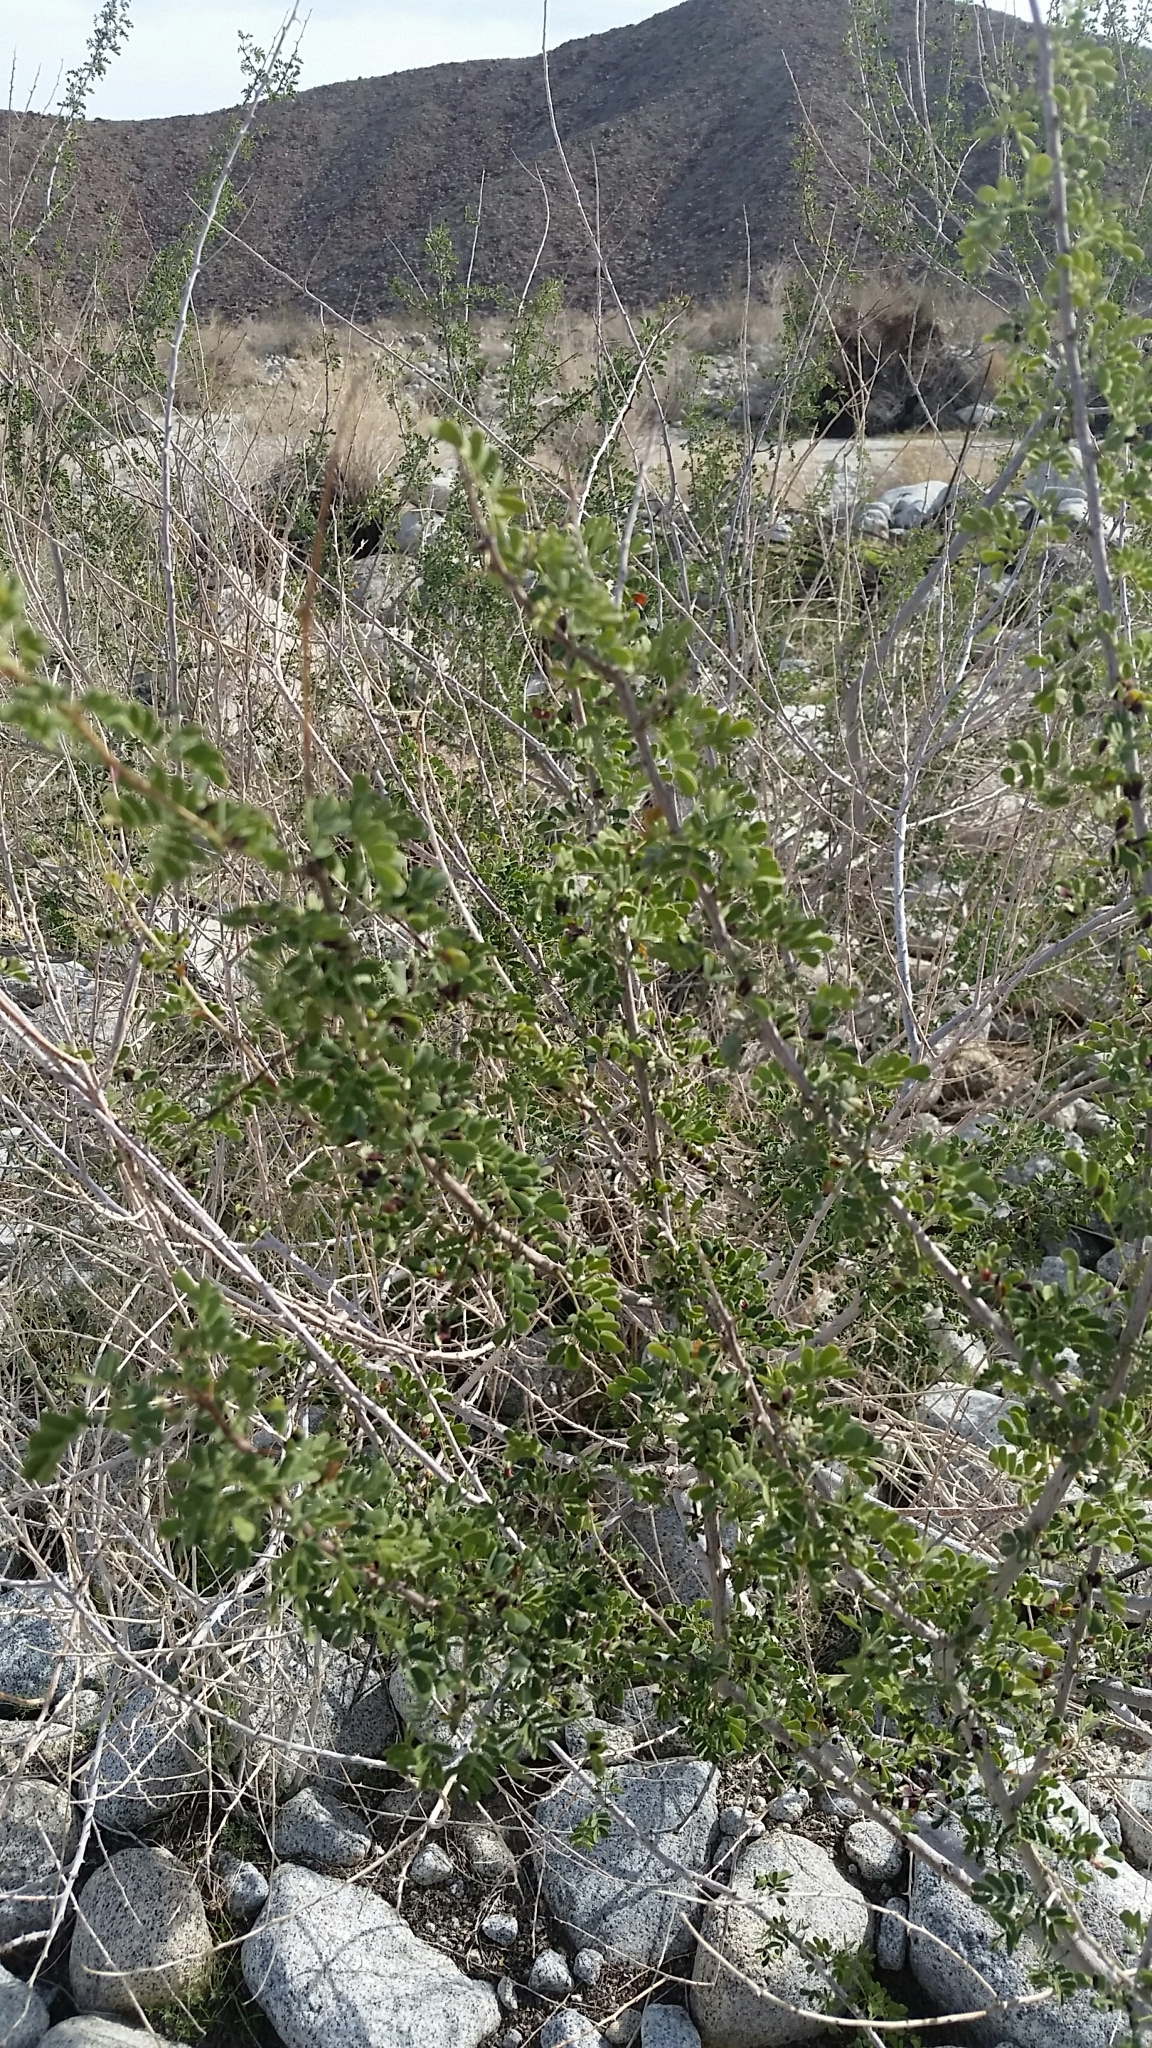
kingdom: Plantae
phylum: Tracheophyta
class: Magnoliopsida
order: Fabales
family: Fabaceae
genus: Senegalia
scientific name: Senegalia greggii
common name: Texas-mimosa
